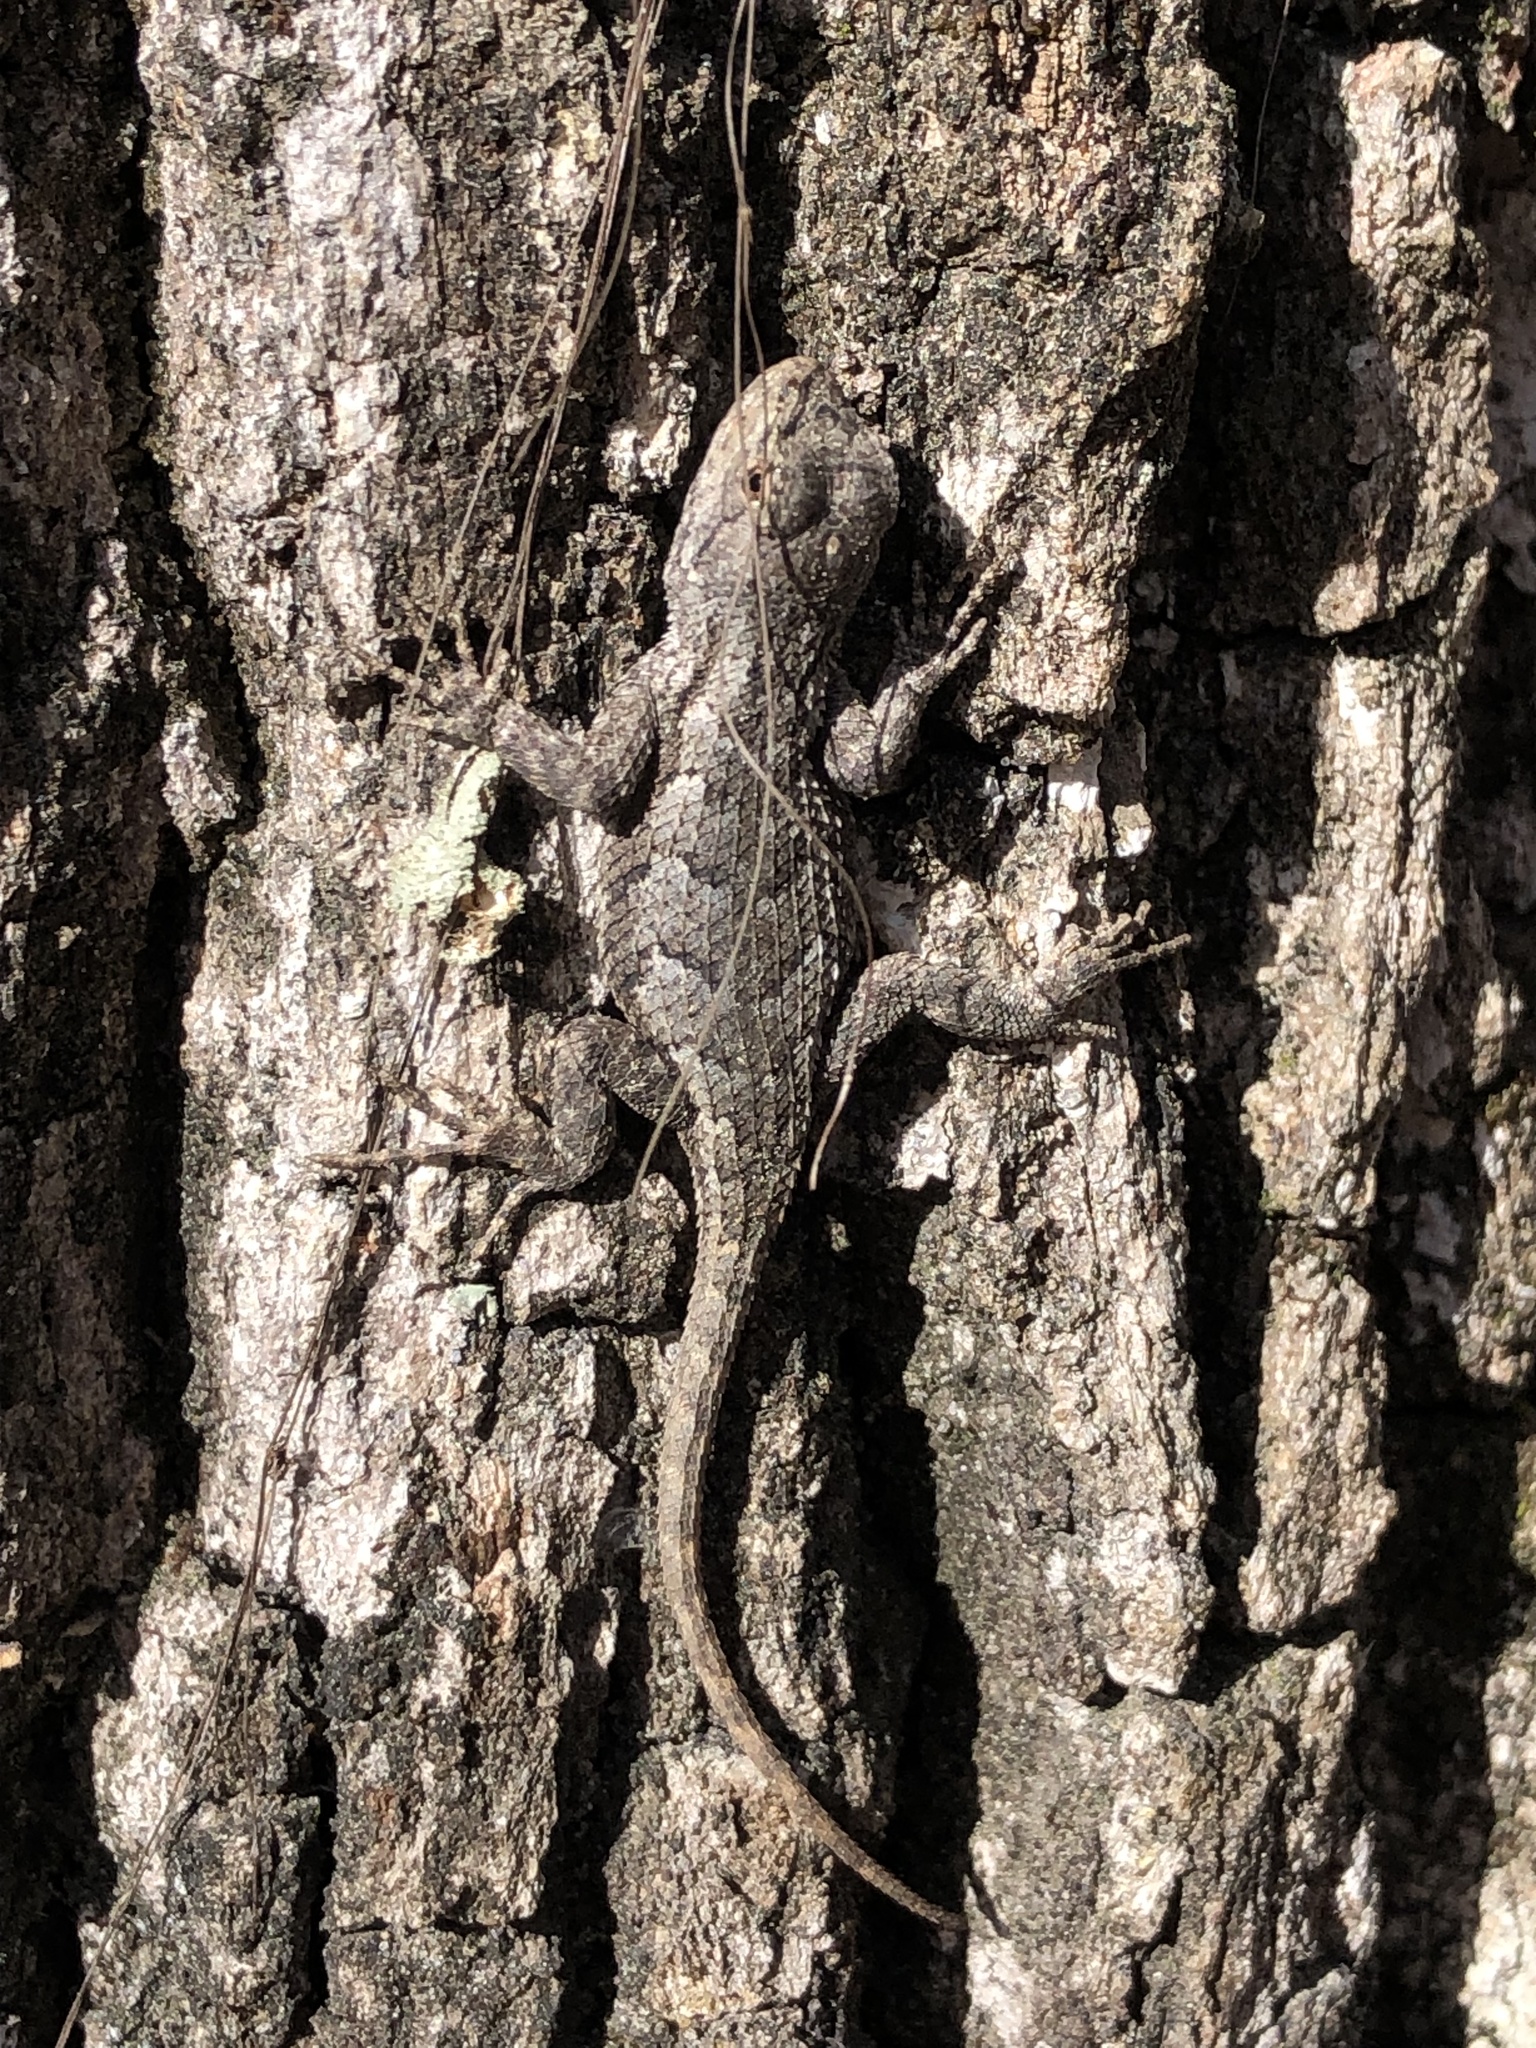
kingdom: Animalia
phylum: Chordata
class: Squamata
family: Phrynosomatidae
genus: Sceloporus
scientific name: Sceloporus undulatus
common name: Eastern fence lizard
